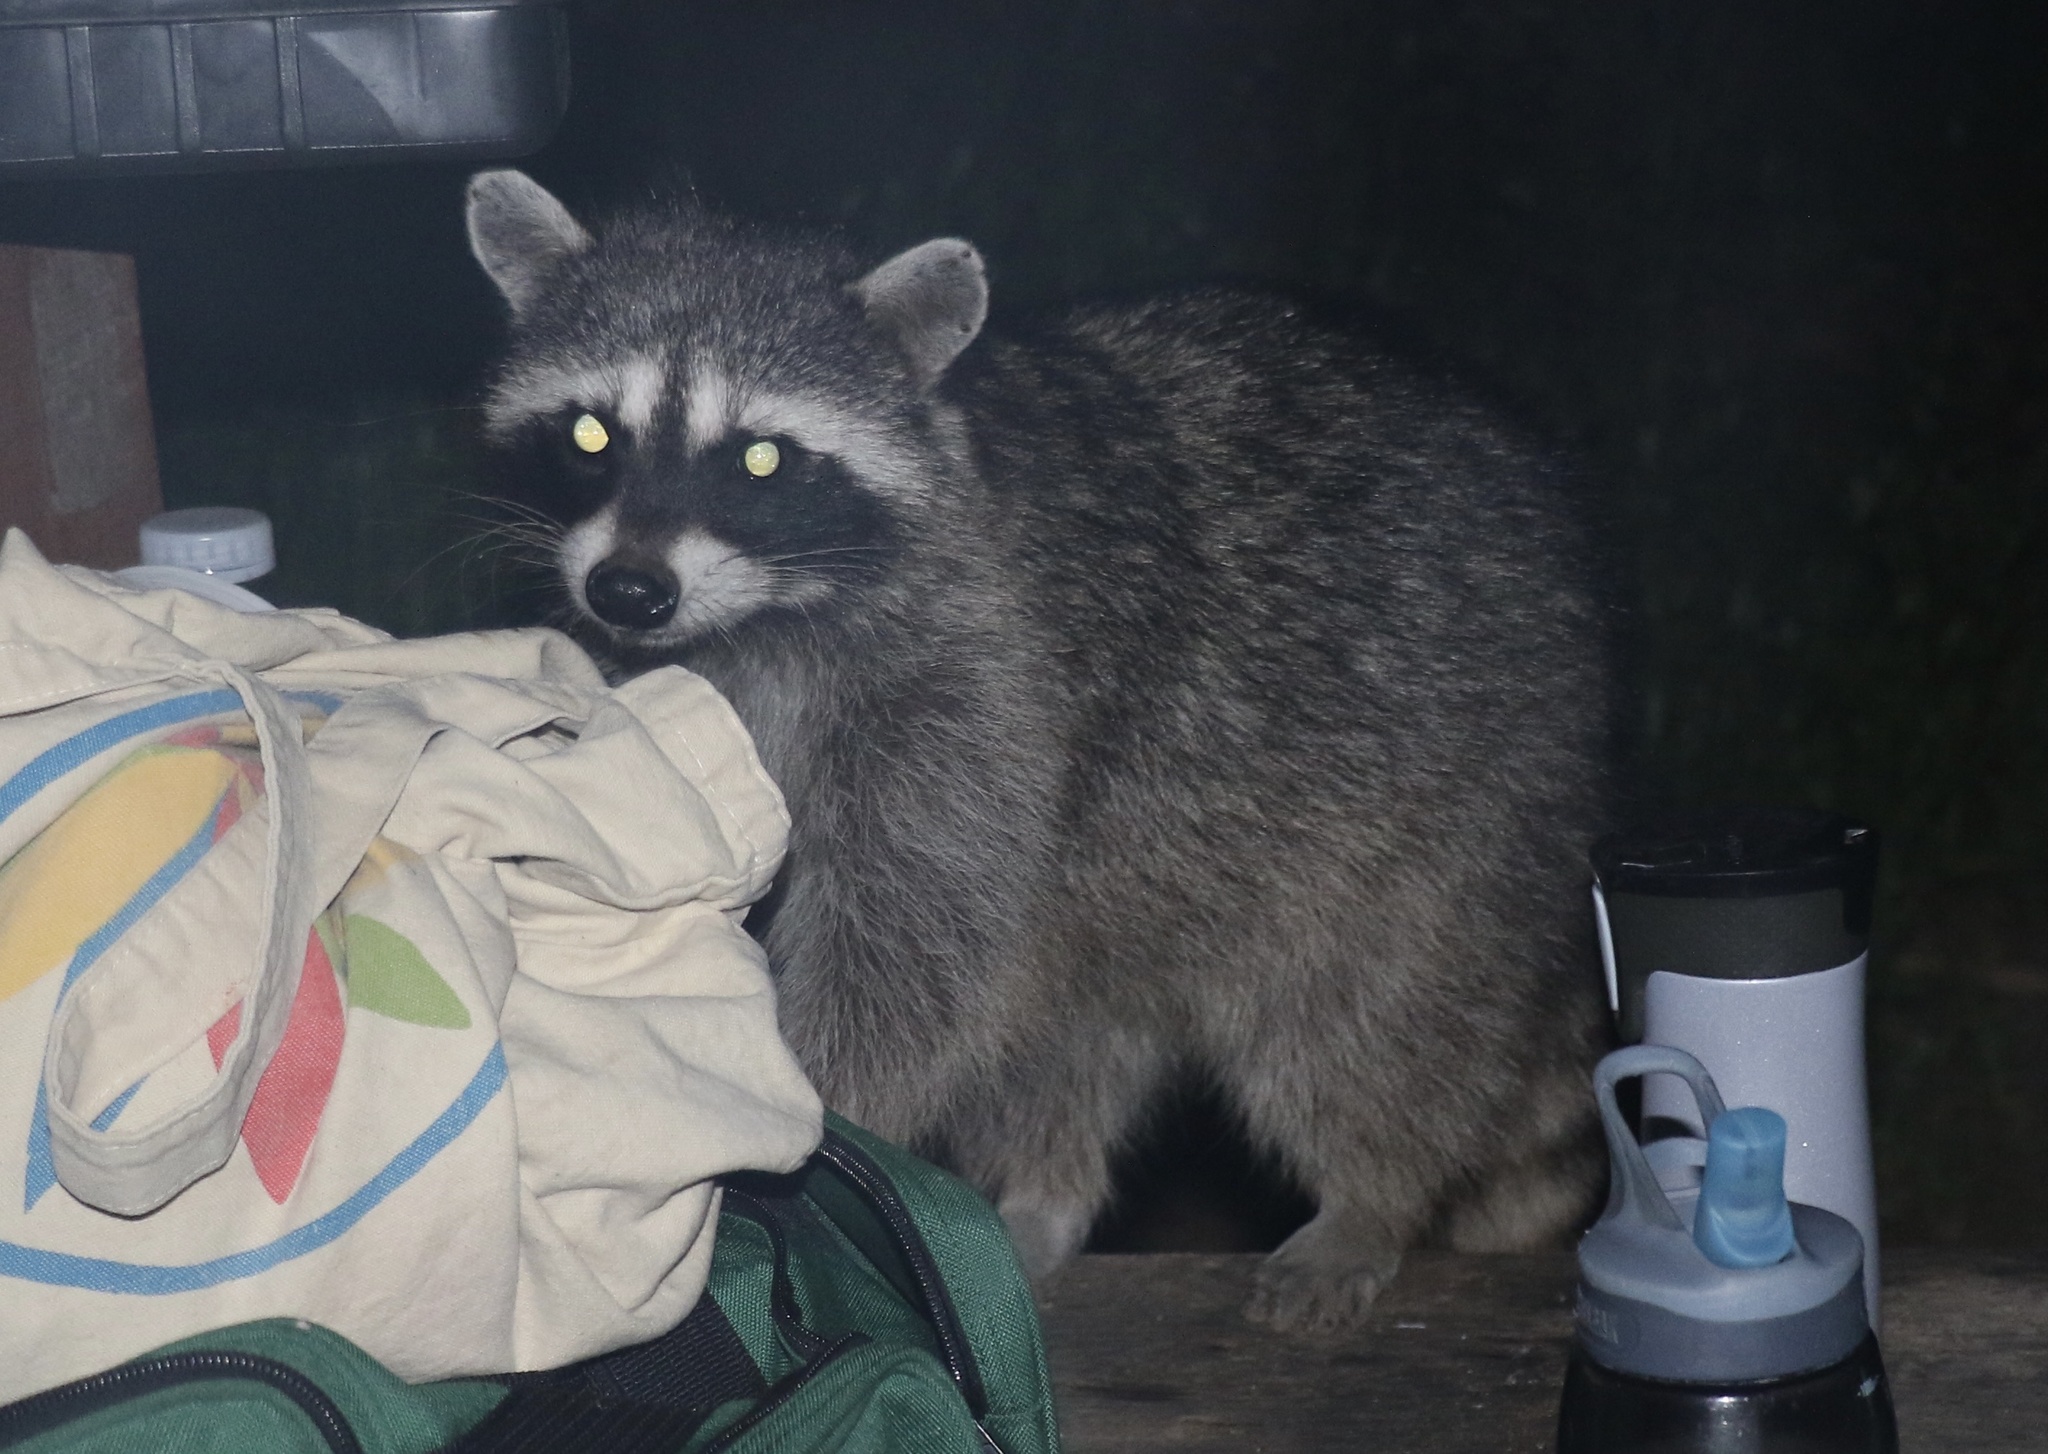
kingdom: Animalia
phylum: Chordata
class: Mammalia
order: Carnivora
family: Procyonidae
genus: Procyon
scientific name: Procyon lotor
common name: Raccoon
